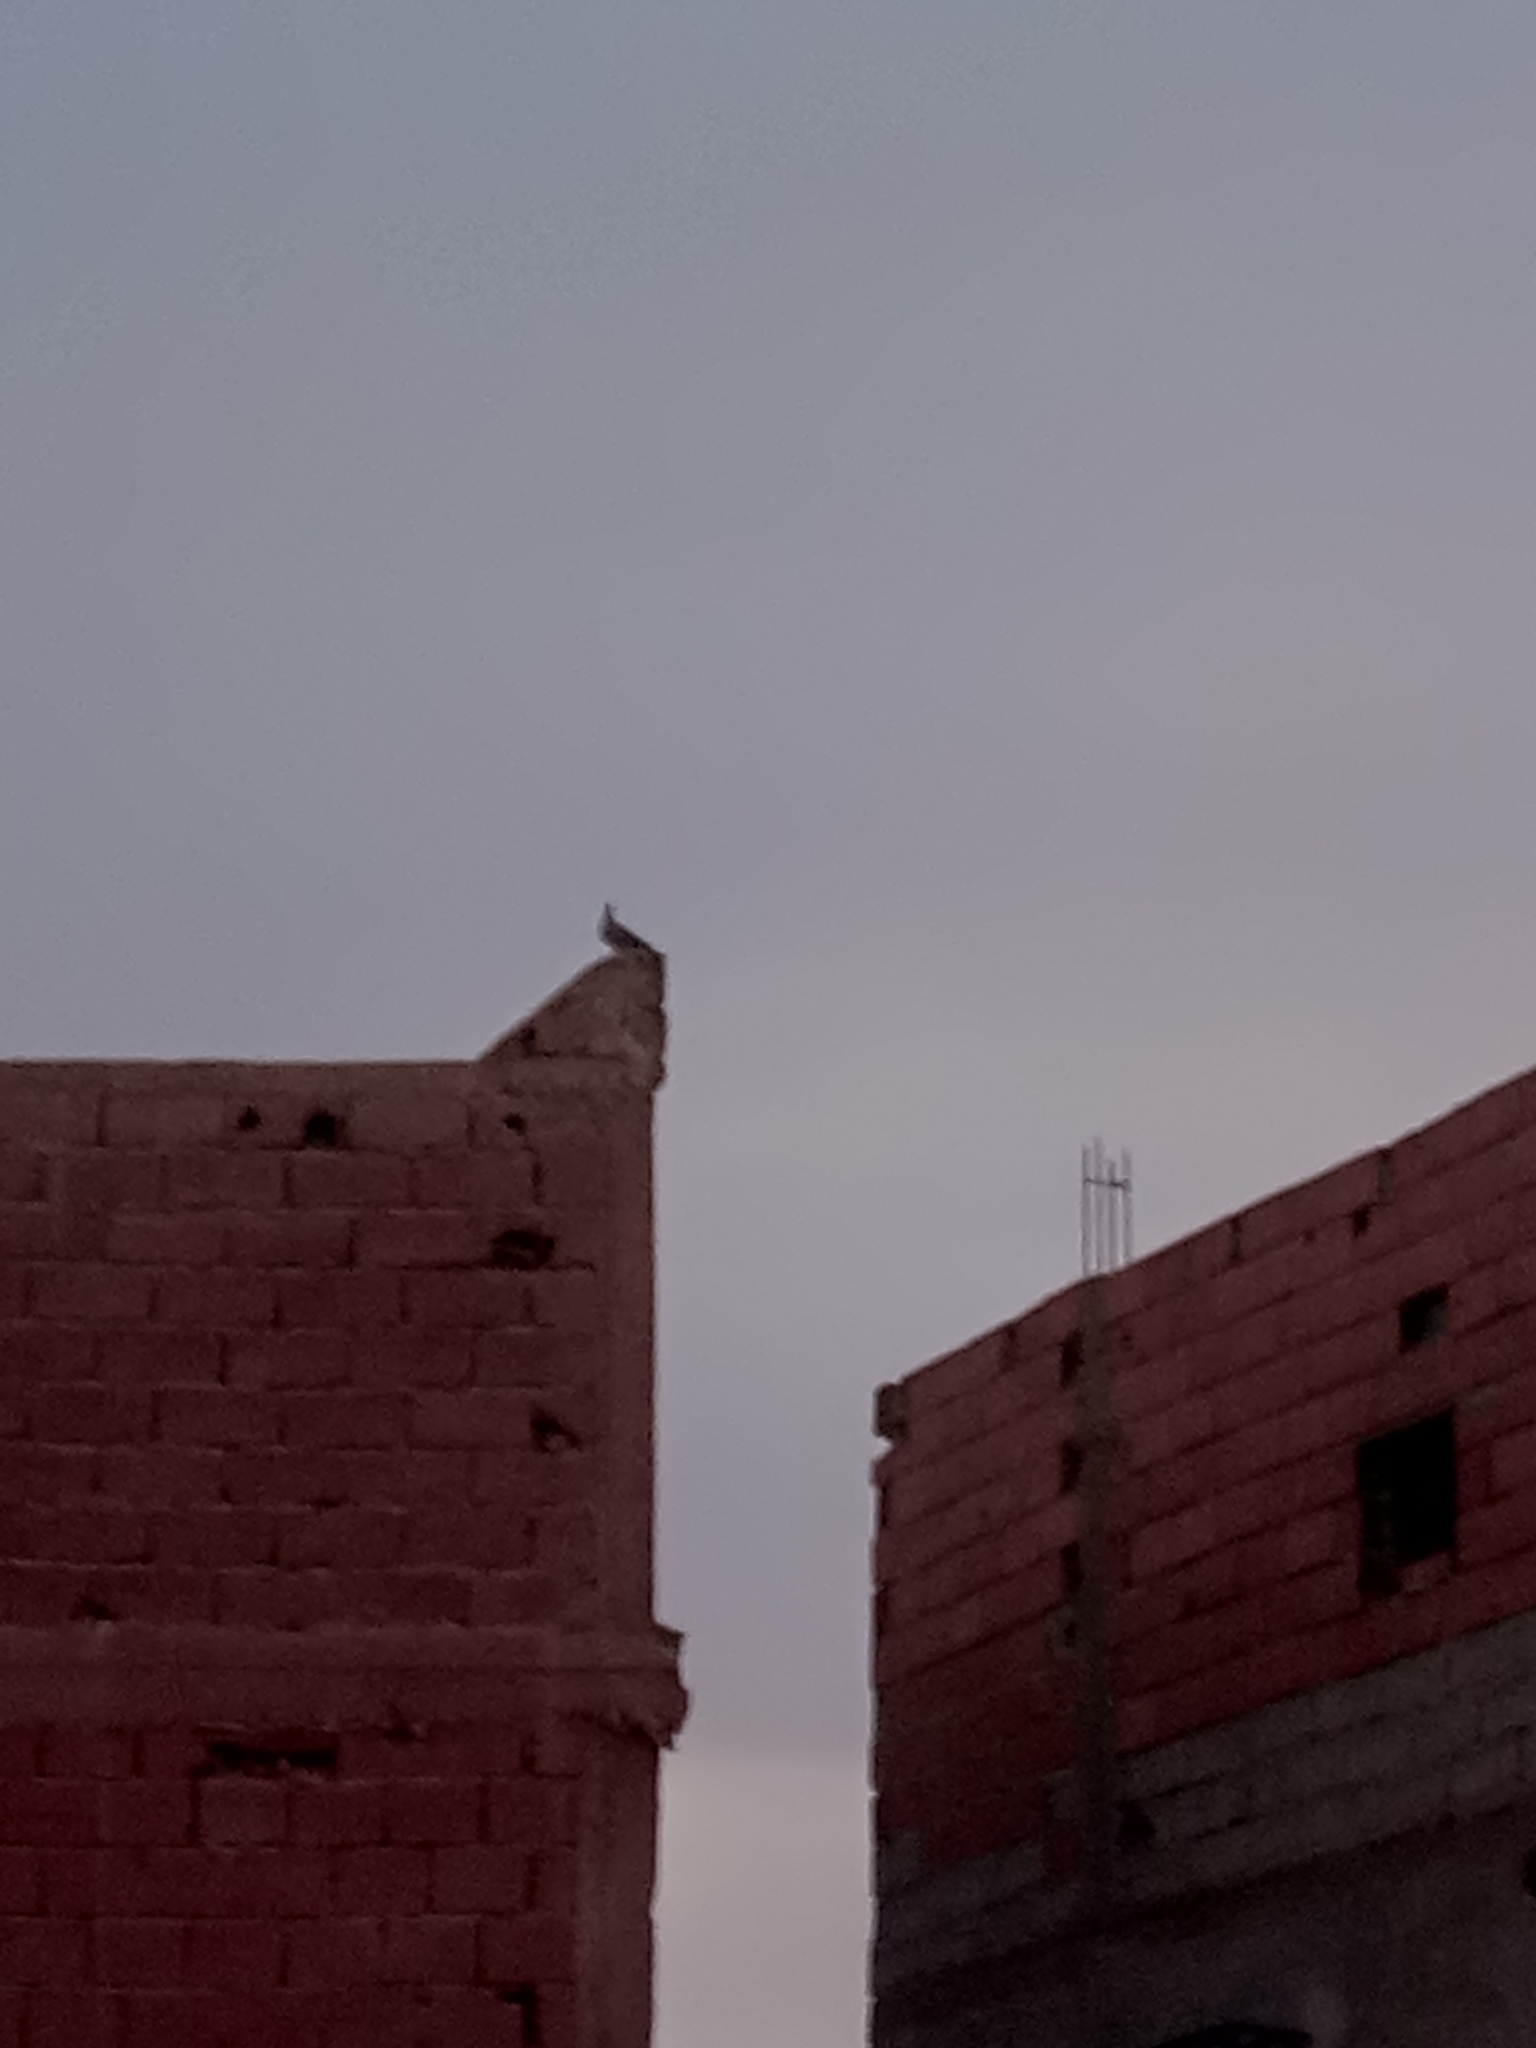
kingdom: Animalia
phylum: Chordata
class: Aves
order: Columbiformes
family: Columbidae
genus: Columba
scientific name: Columba livia
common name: Rock pigeon
